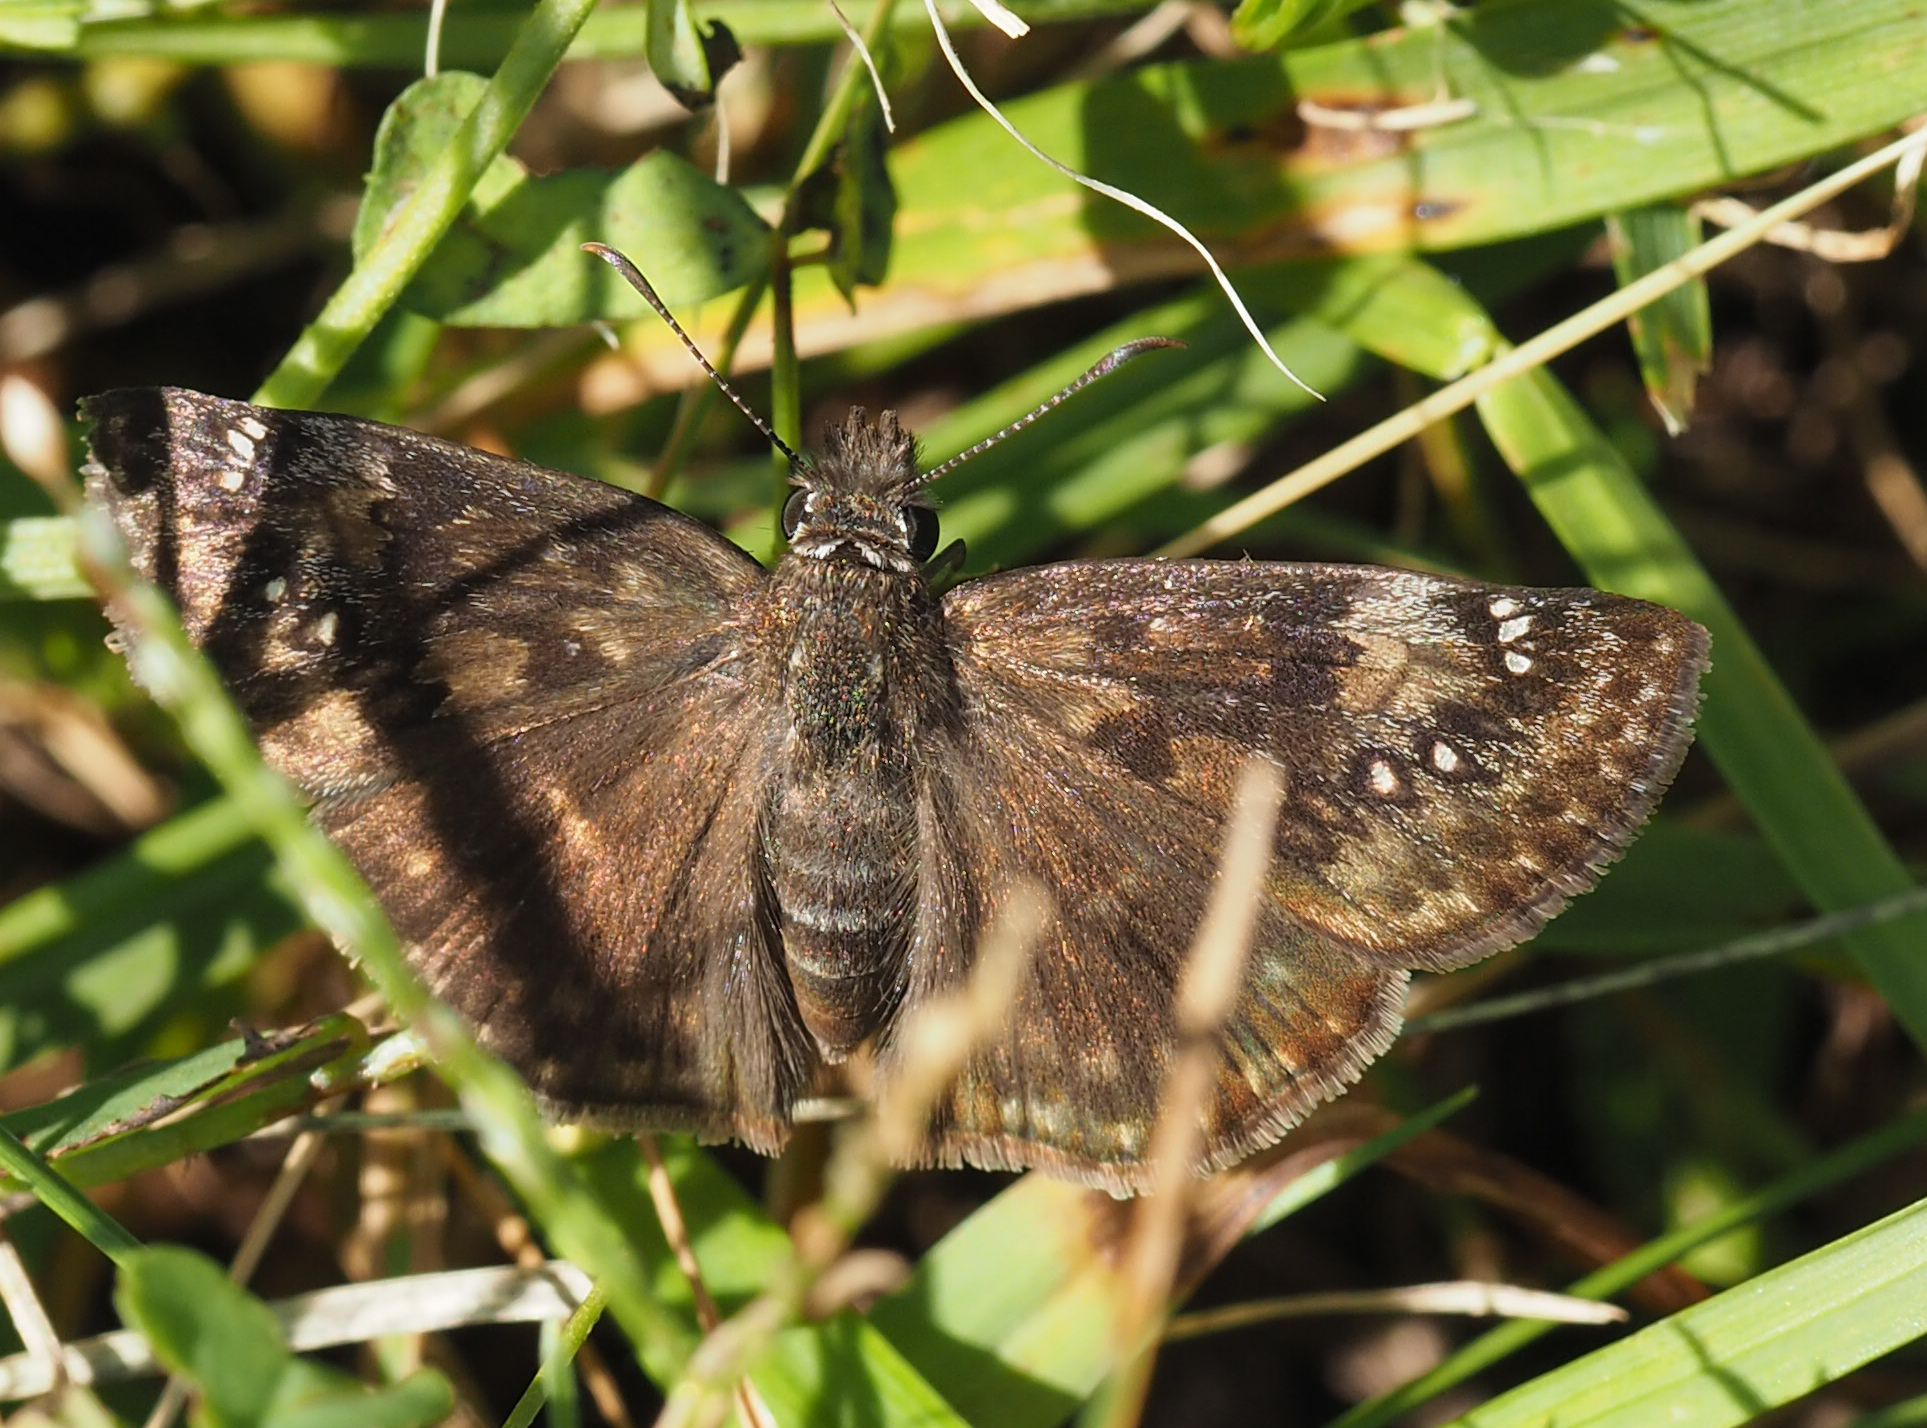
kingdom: Animalia
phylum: Arthropoda
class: Insecta
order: Lepidoptera
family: Hesperiidae
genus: Erynnis
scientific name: Erynnis baptisiae
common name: Wild indigo duskywing
